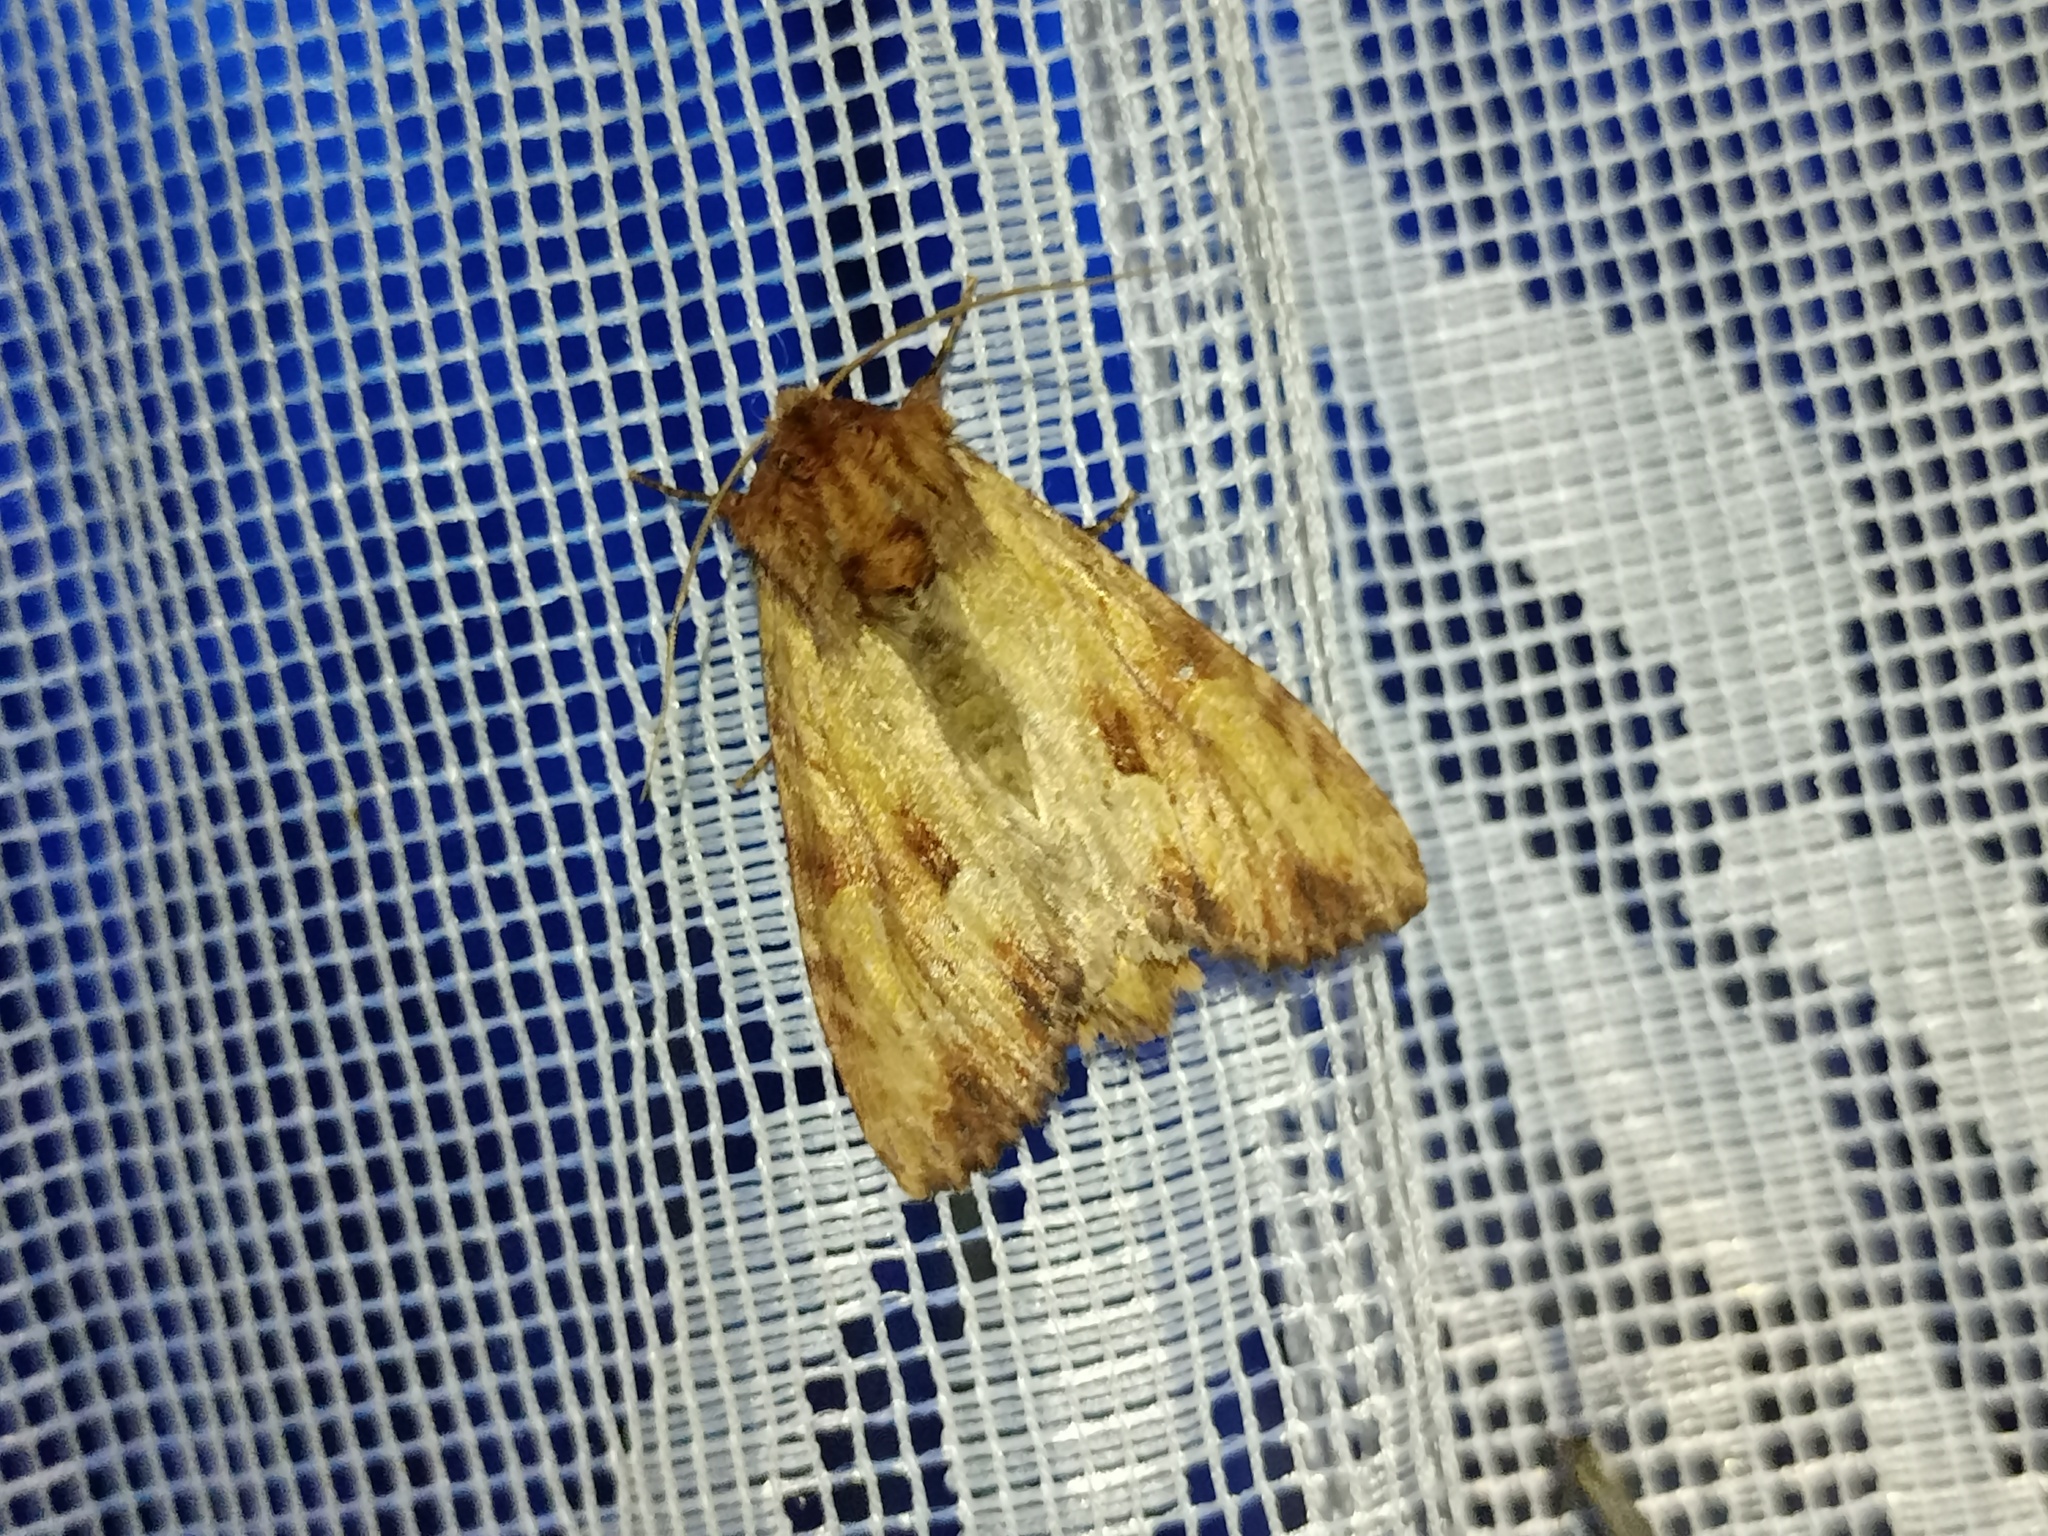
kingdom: Animalia
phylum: Arthropoda
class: Insecta
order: Lepidoptera
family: Noctuidae
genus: Apamea
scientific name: Apamea sublustris
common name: Reddish light arches
